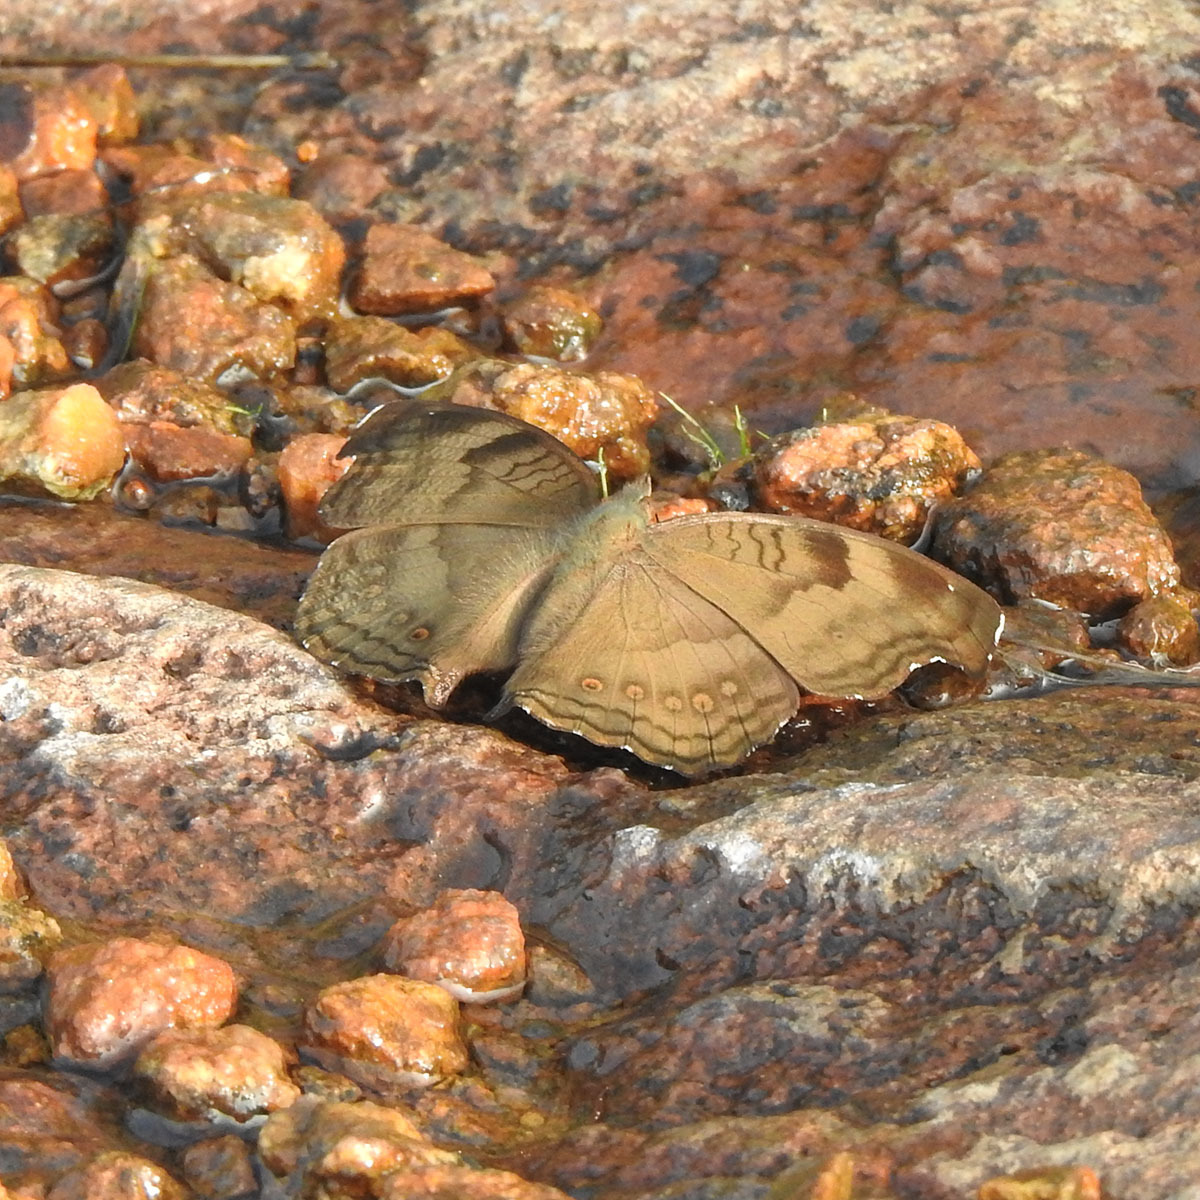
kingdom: Animalia
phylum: Arthropoda
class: Insecta
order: Lepidoptera
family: Nymphalidae
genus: Junonia
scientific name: Junonia iphita
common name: Chocolate pansy
